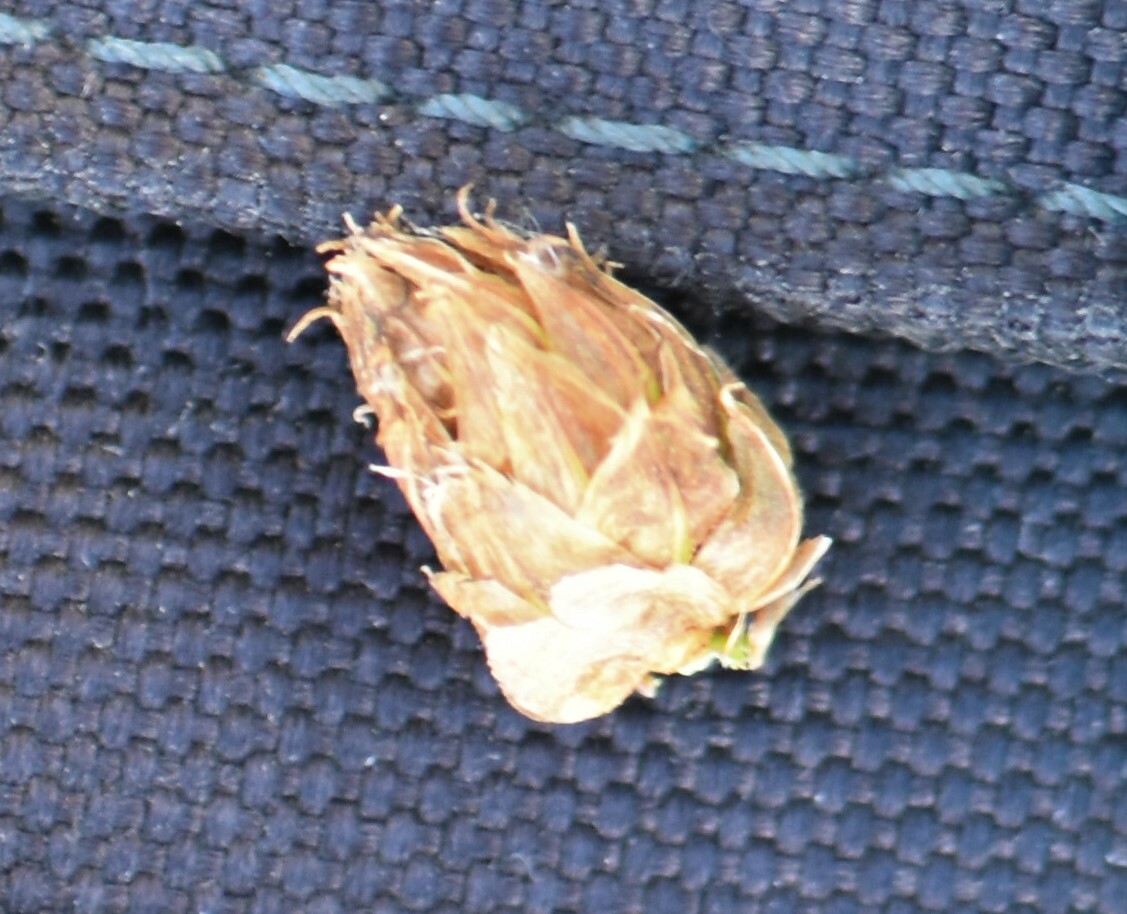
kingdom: Plantae
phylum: Tracheophyta
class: Liliopsida
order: Poales
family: Cyperaceae
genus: Bolboschoenus
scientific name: Bolboschoenus maritimus
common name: Sea club-rush
